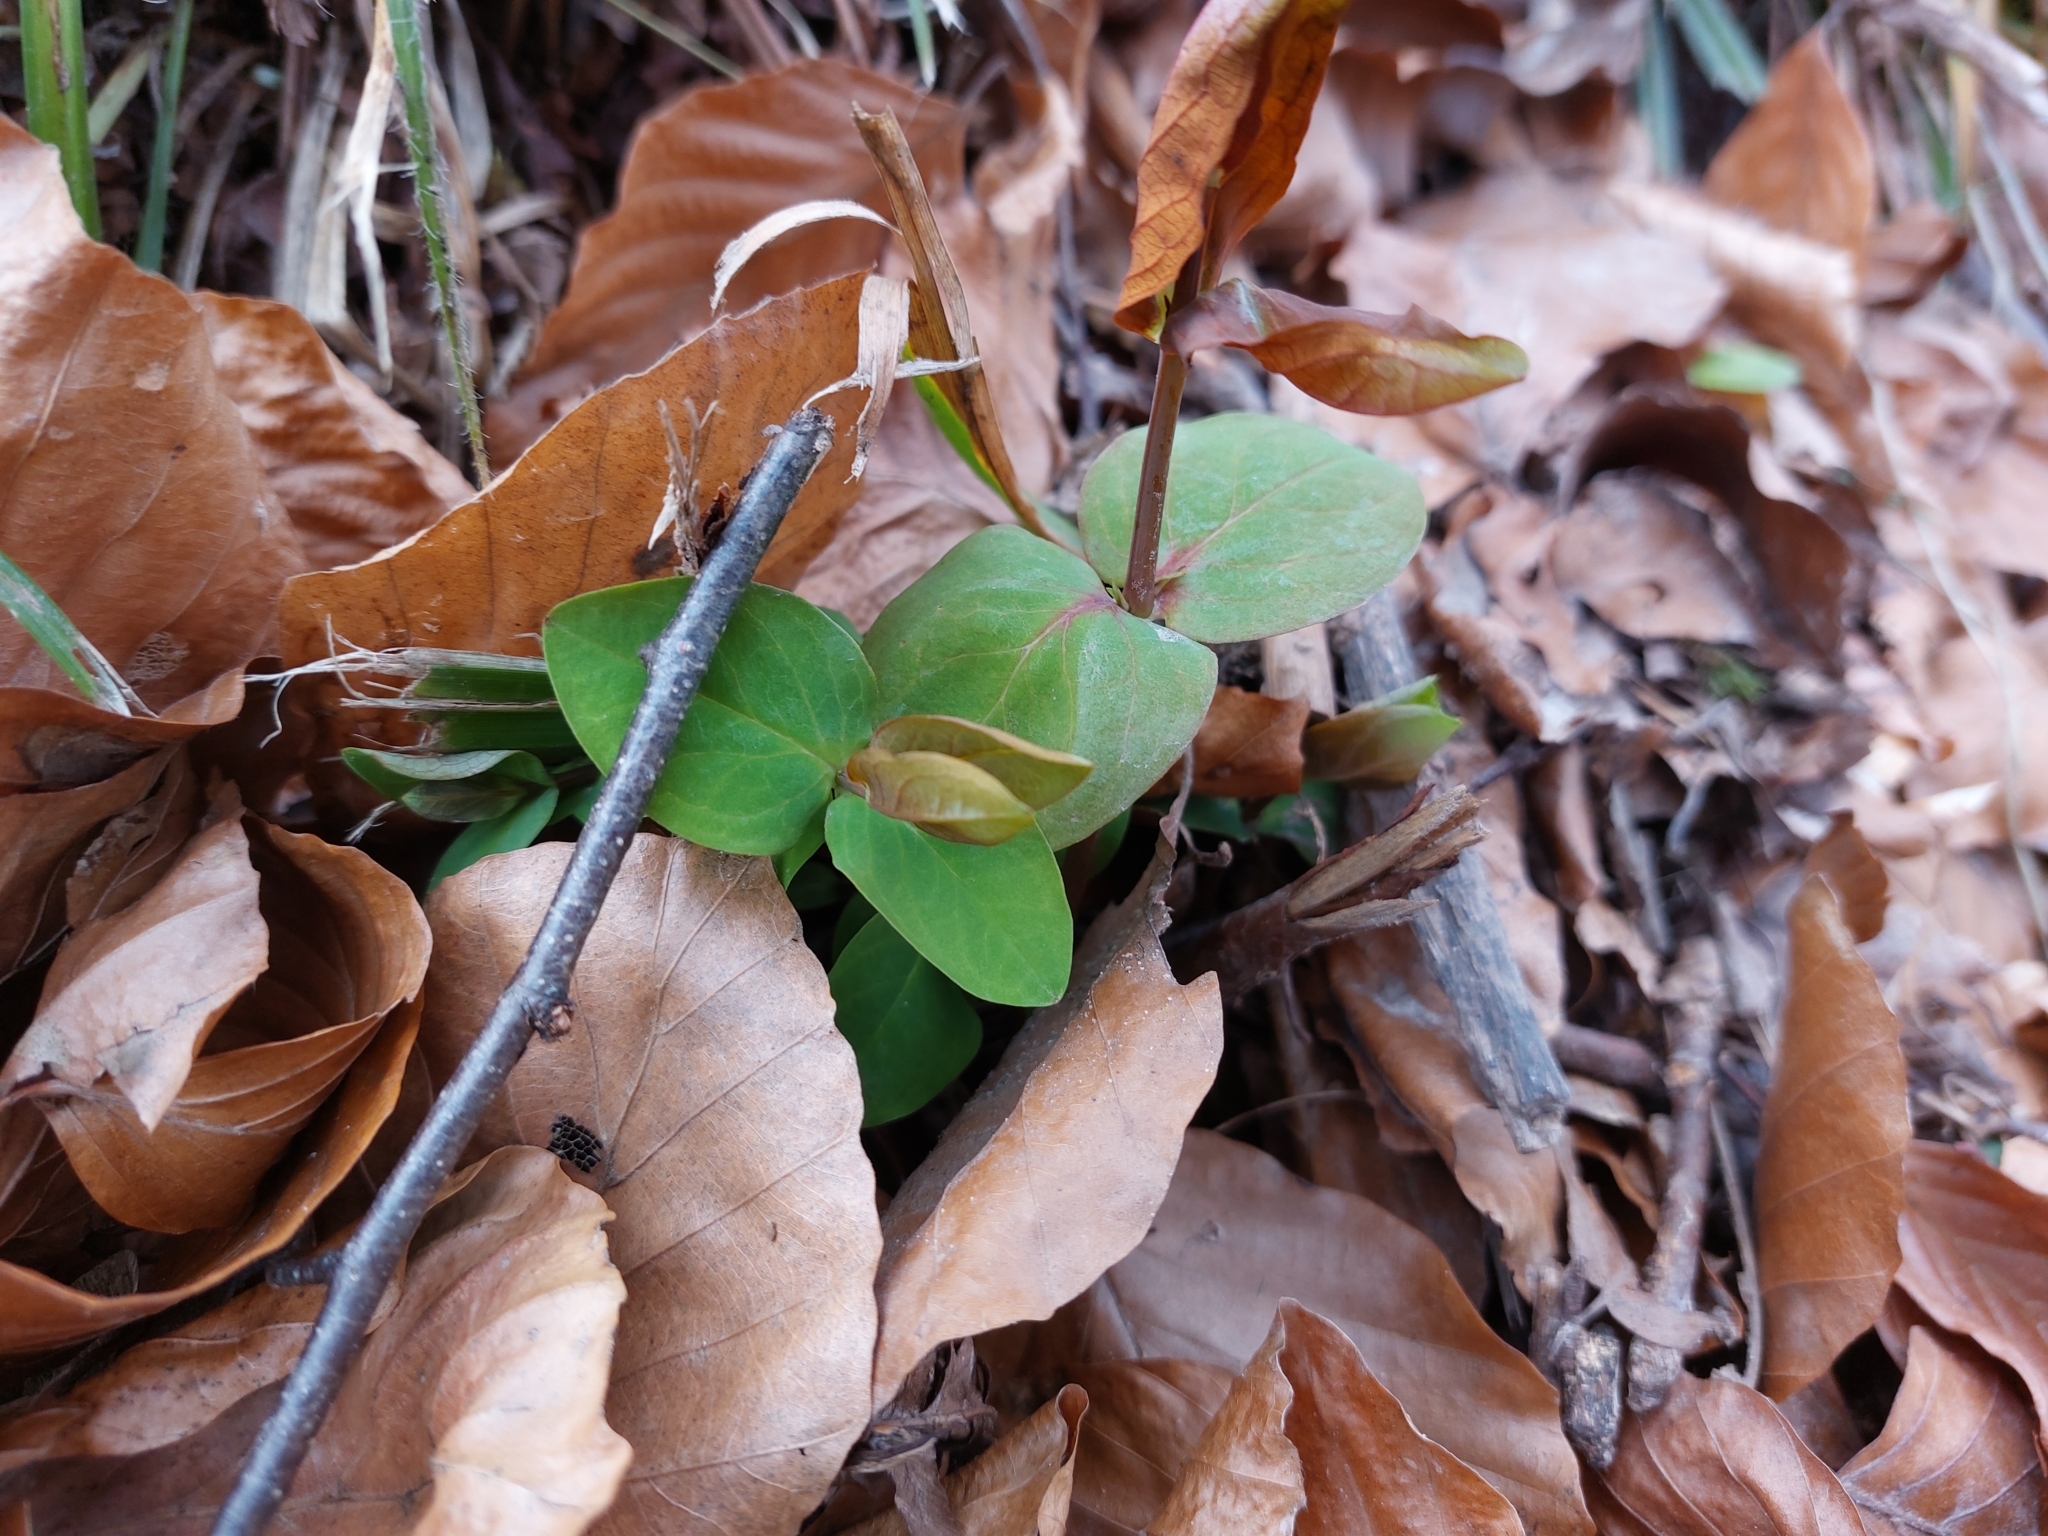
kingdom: Plantae
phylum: Tracheophyta
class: Magnoliopsida
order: Malpighiales
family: Hypericaceae
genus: Hypericum
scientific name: Hypericum androsaemum
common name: Sweet-amber
